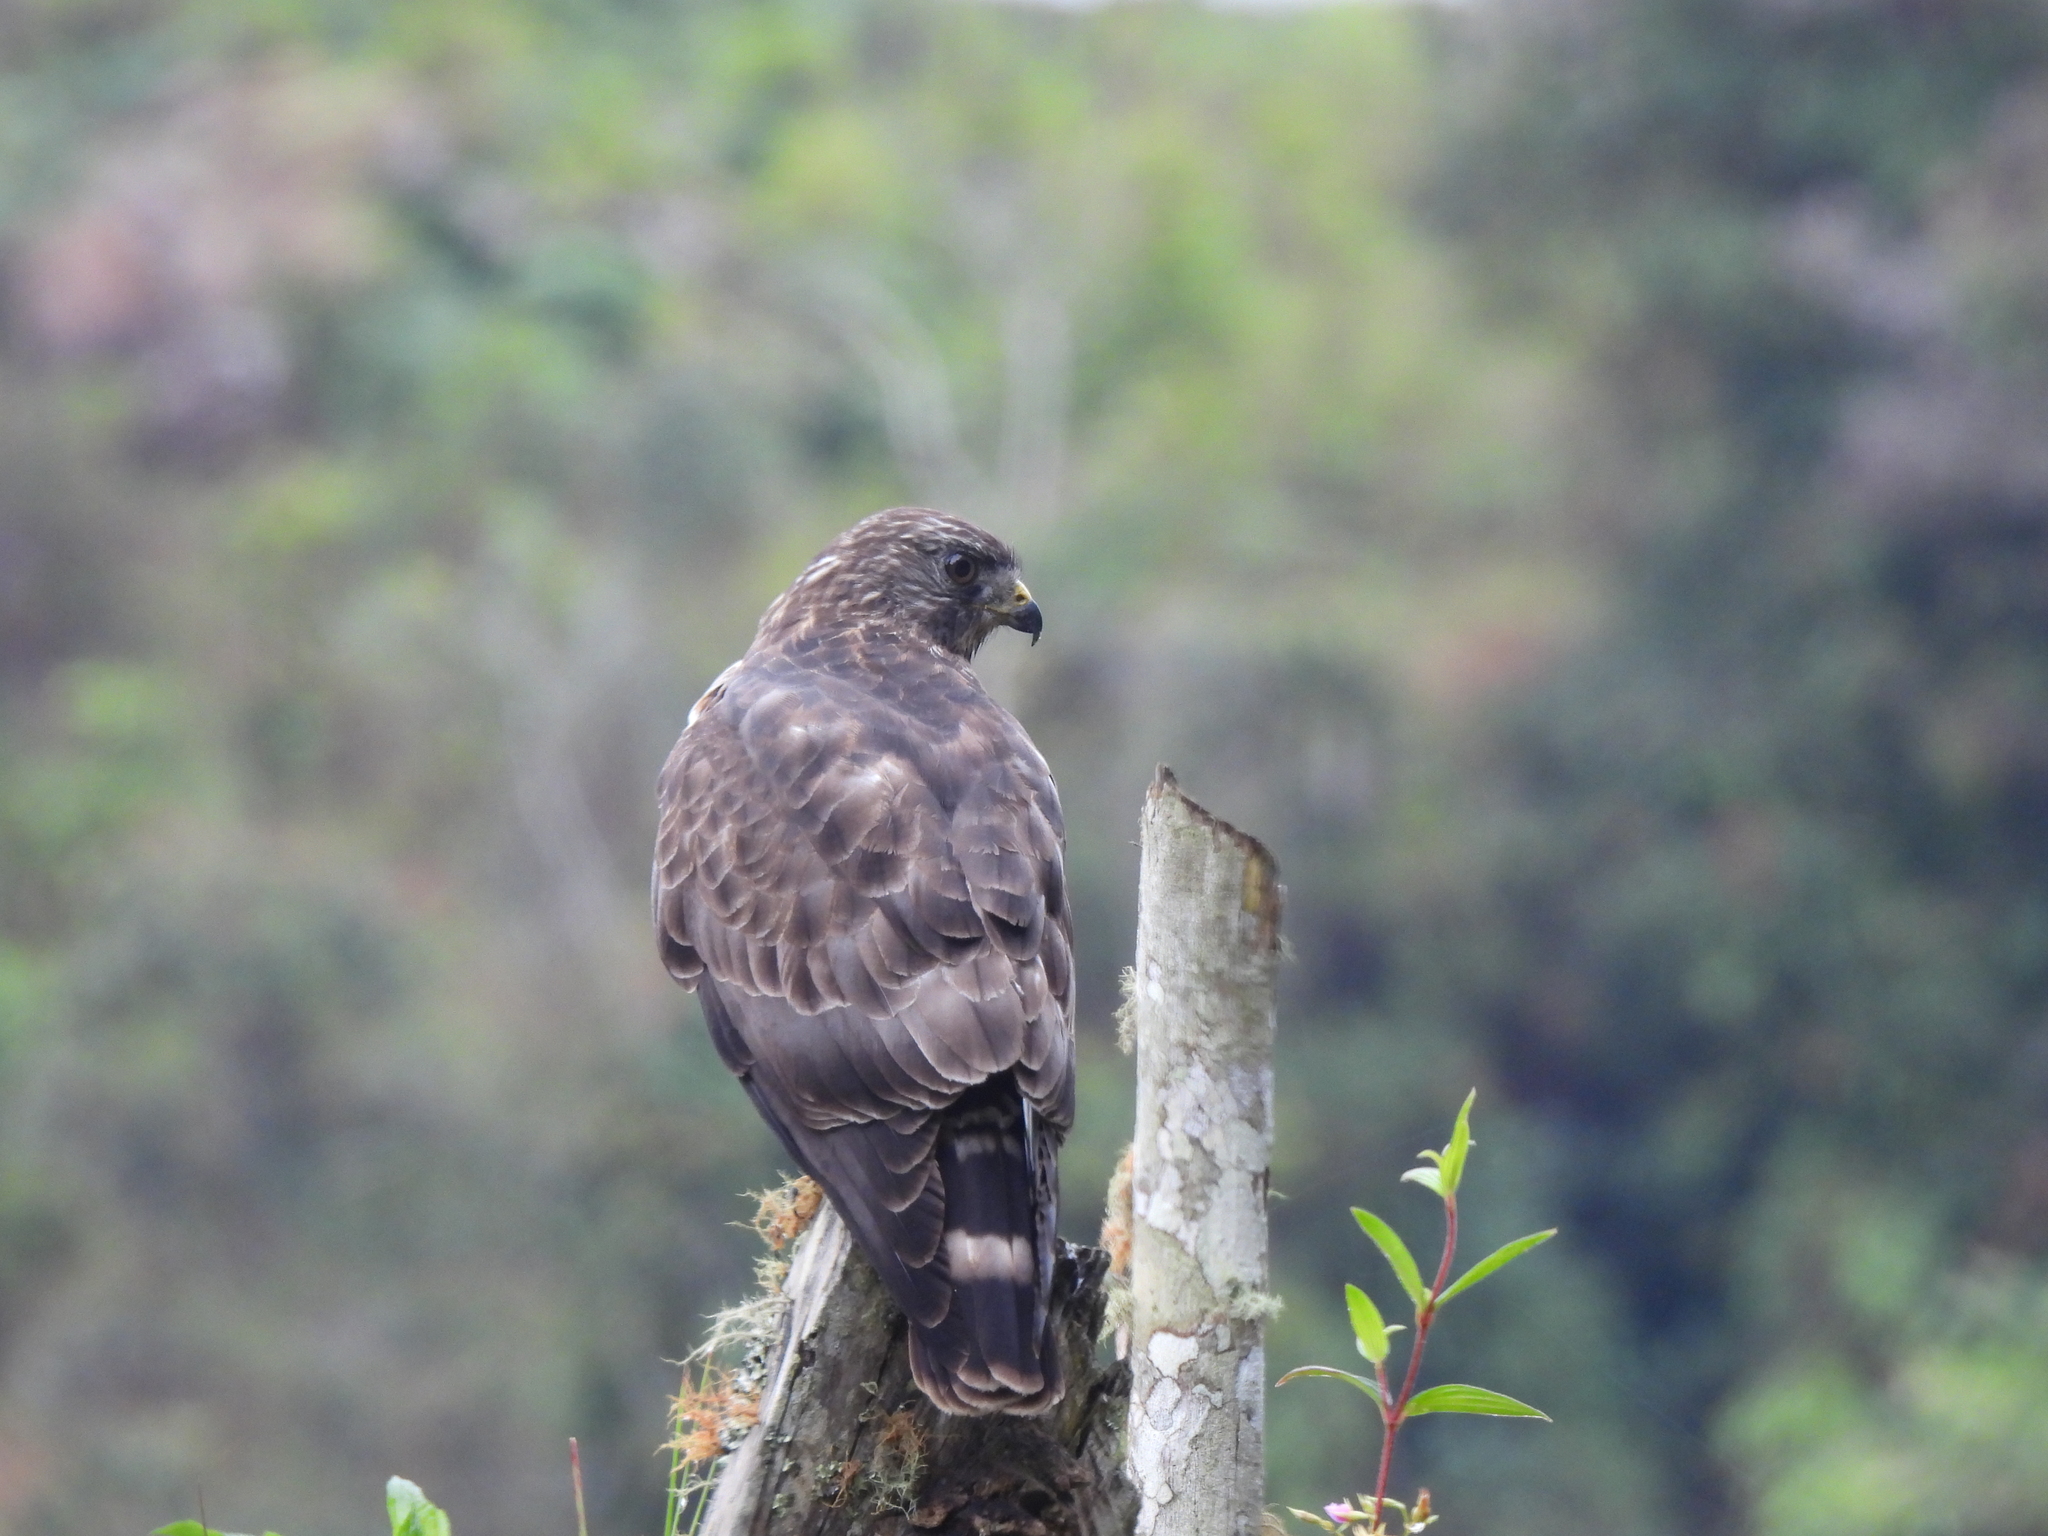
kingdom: Animalia
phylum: Chordata
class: Aves
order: Accipitriformes
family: Accipitridae
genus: Buteo
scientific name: Buteo platypterus
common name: Broad-winged hawk
